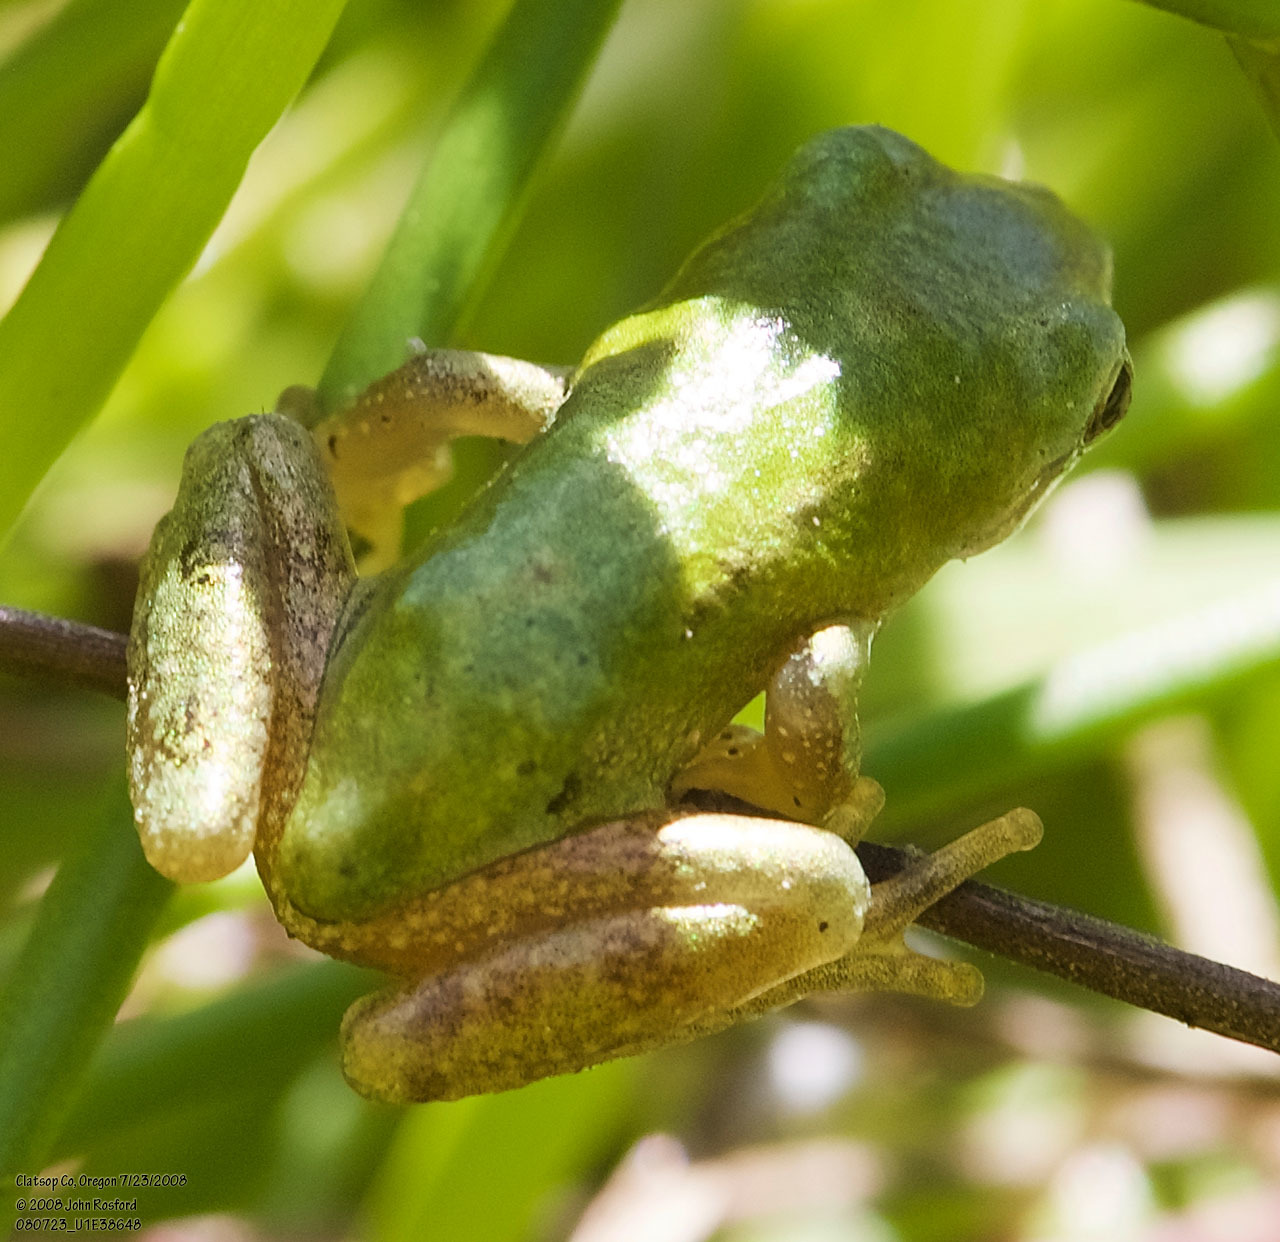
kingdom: Animalia
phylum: Chordata
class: Amphibia
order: Anura
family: Hylidae
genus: Pseudacris
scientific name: Pseudacris regilla
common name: Pacific chorus frog
